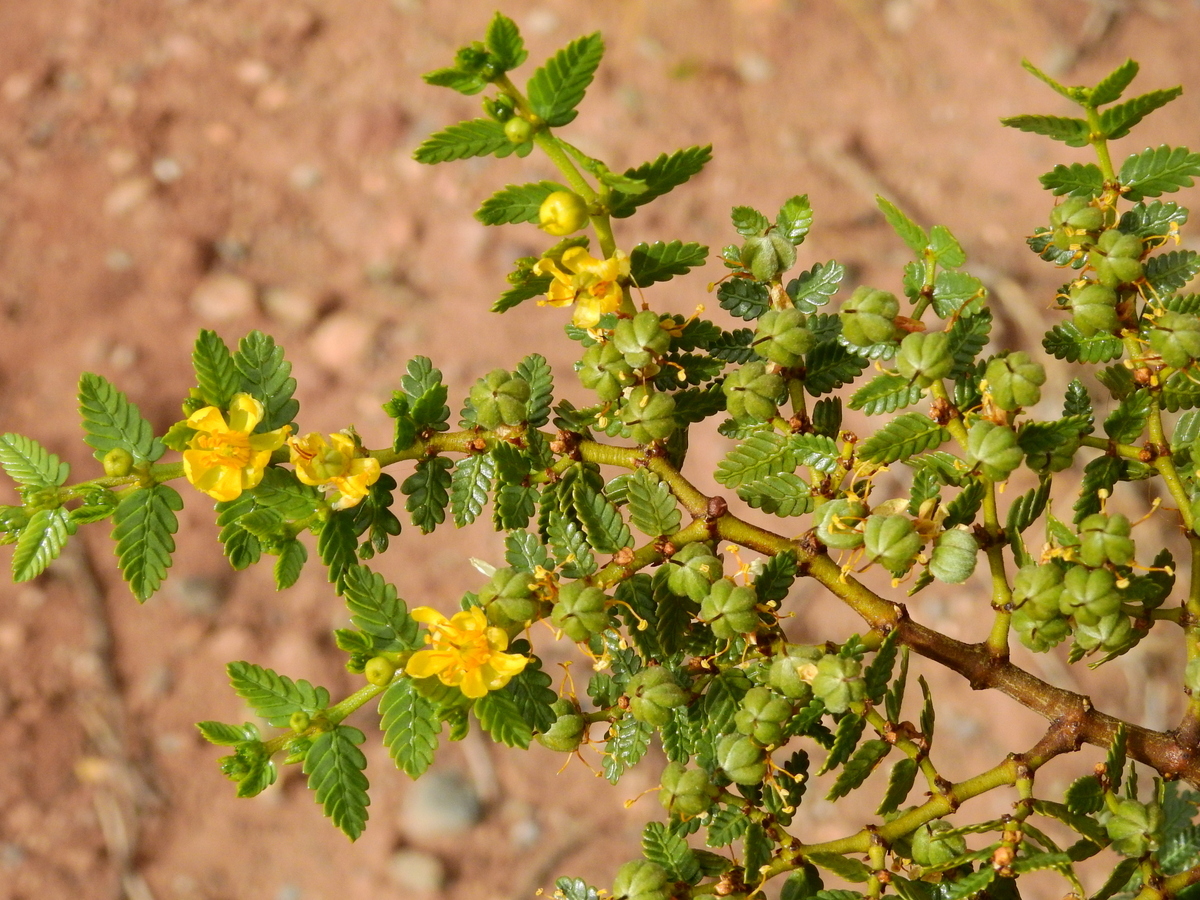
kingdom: Plantae
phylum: Tracheophyta
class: Magnoliopsida
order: Zygophyllales
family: Zygophyllaceae
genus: Larrea
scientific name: Larrea nitida
